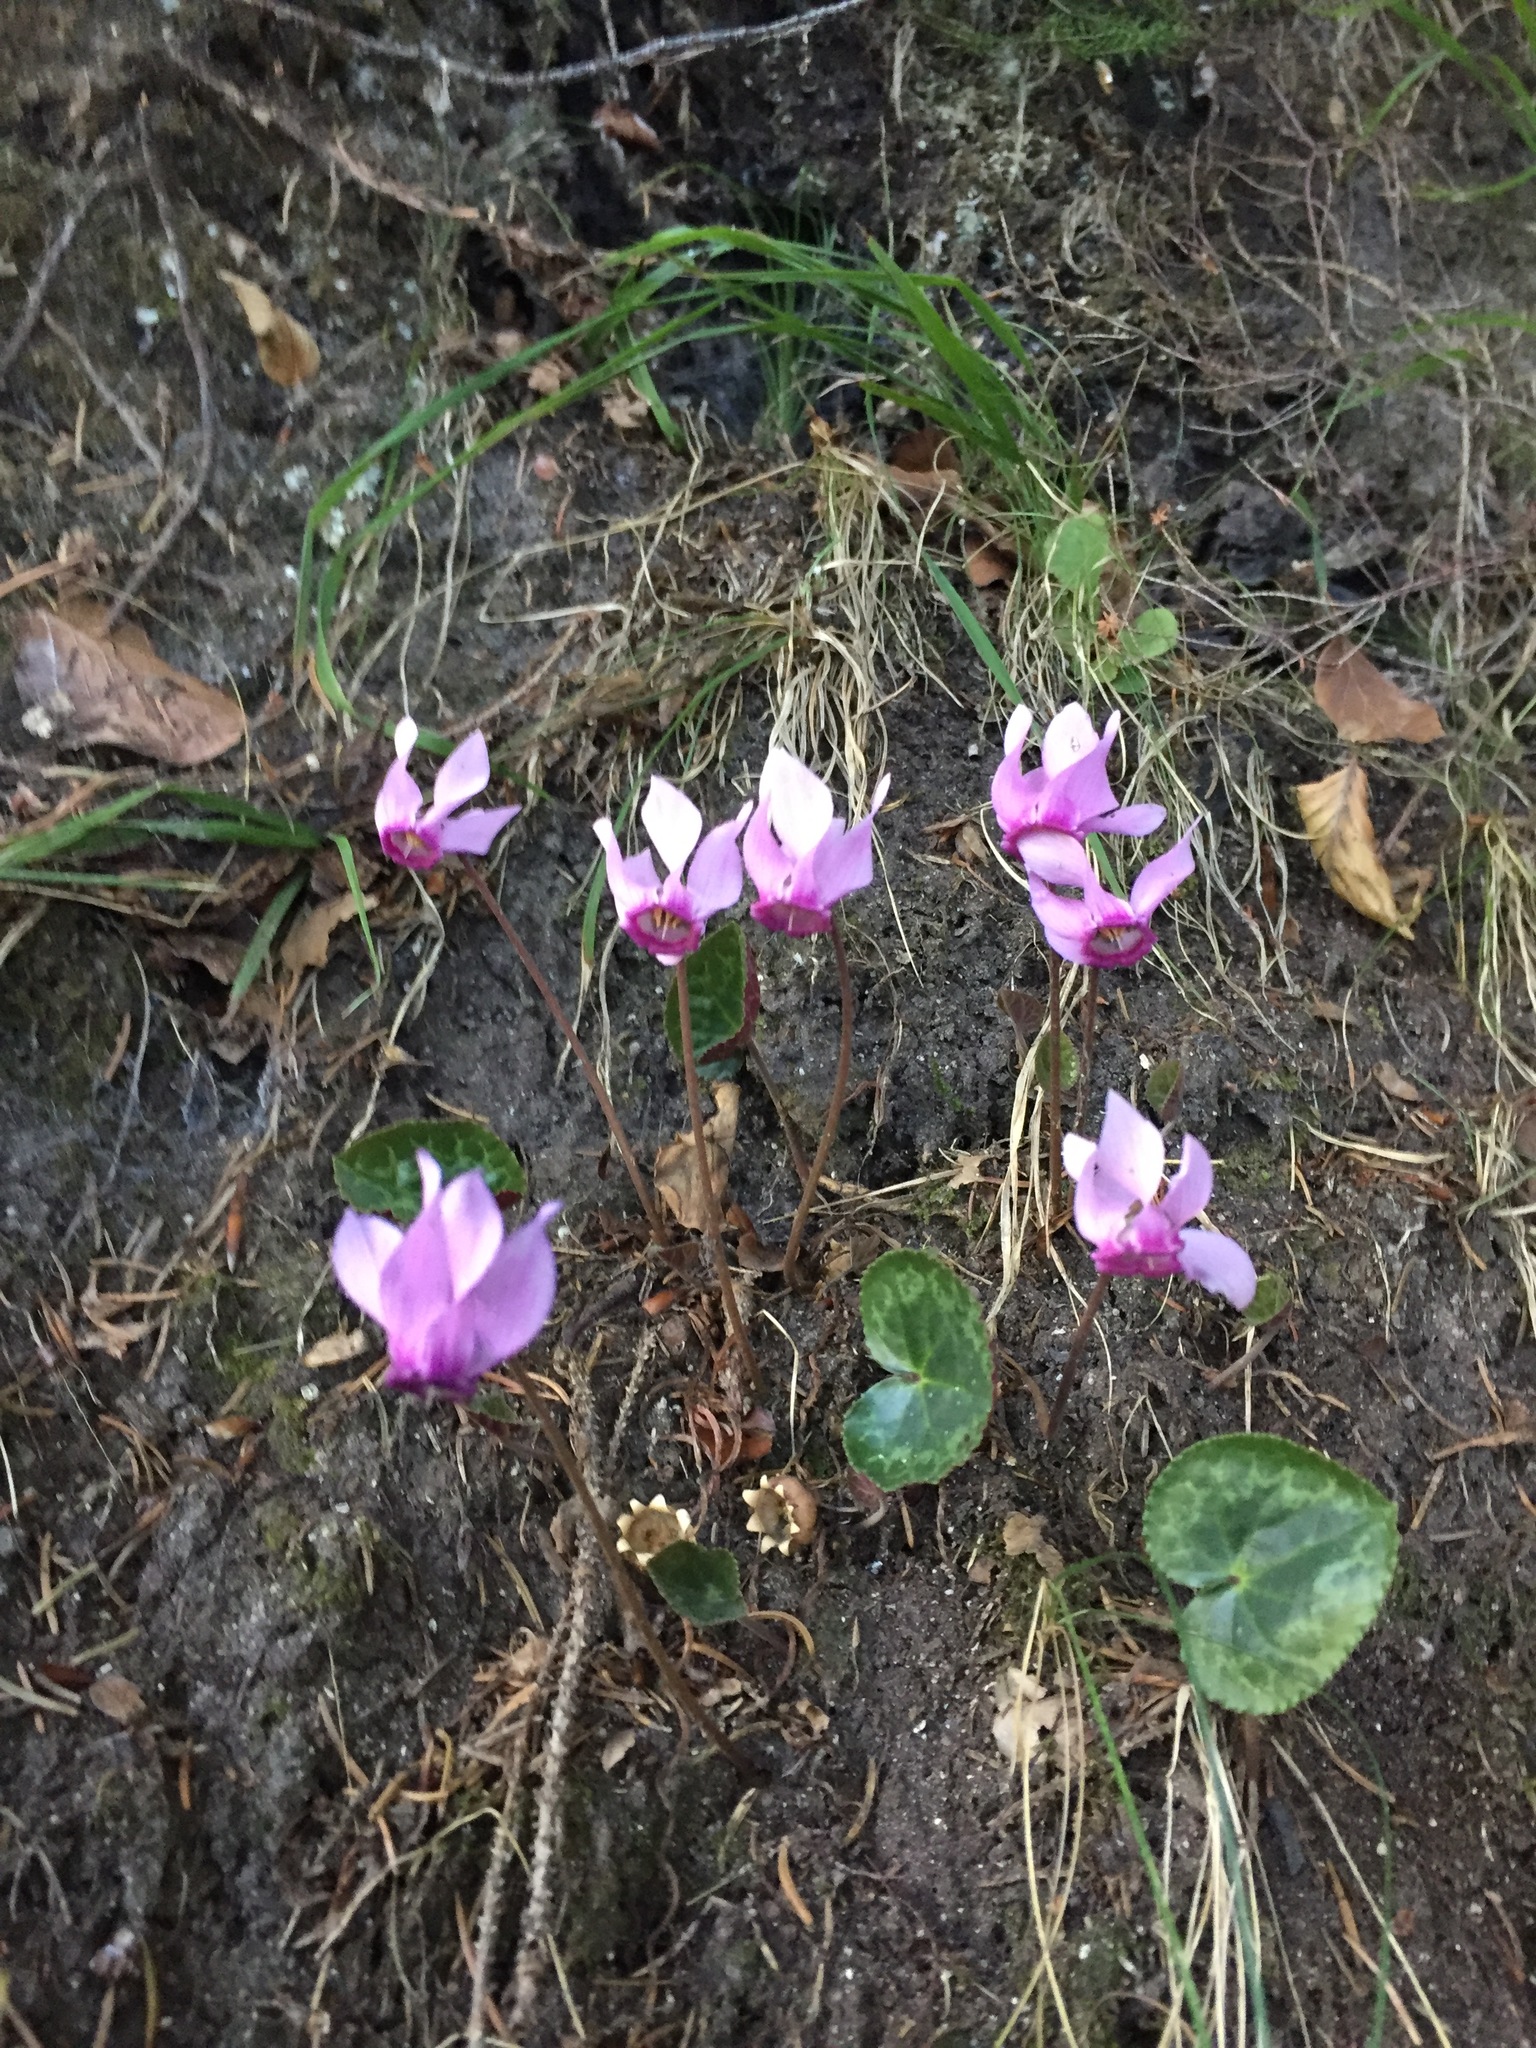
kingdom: Plantae
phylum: Tracheophyta
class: Magnoliopsida
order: Ericales
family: Primulaceae
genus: Cyclamen
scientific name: Cyclamen purpurascens
